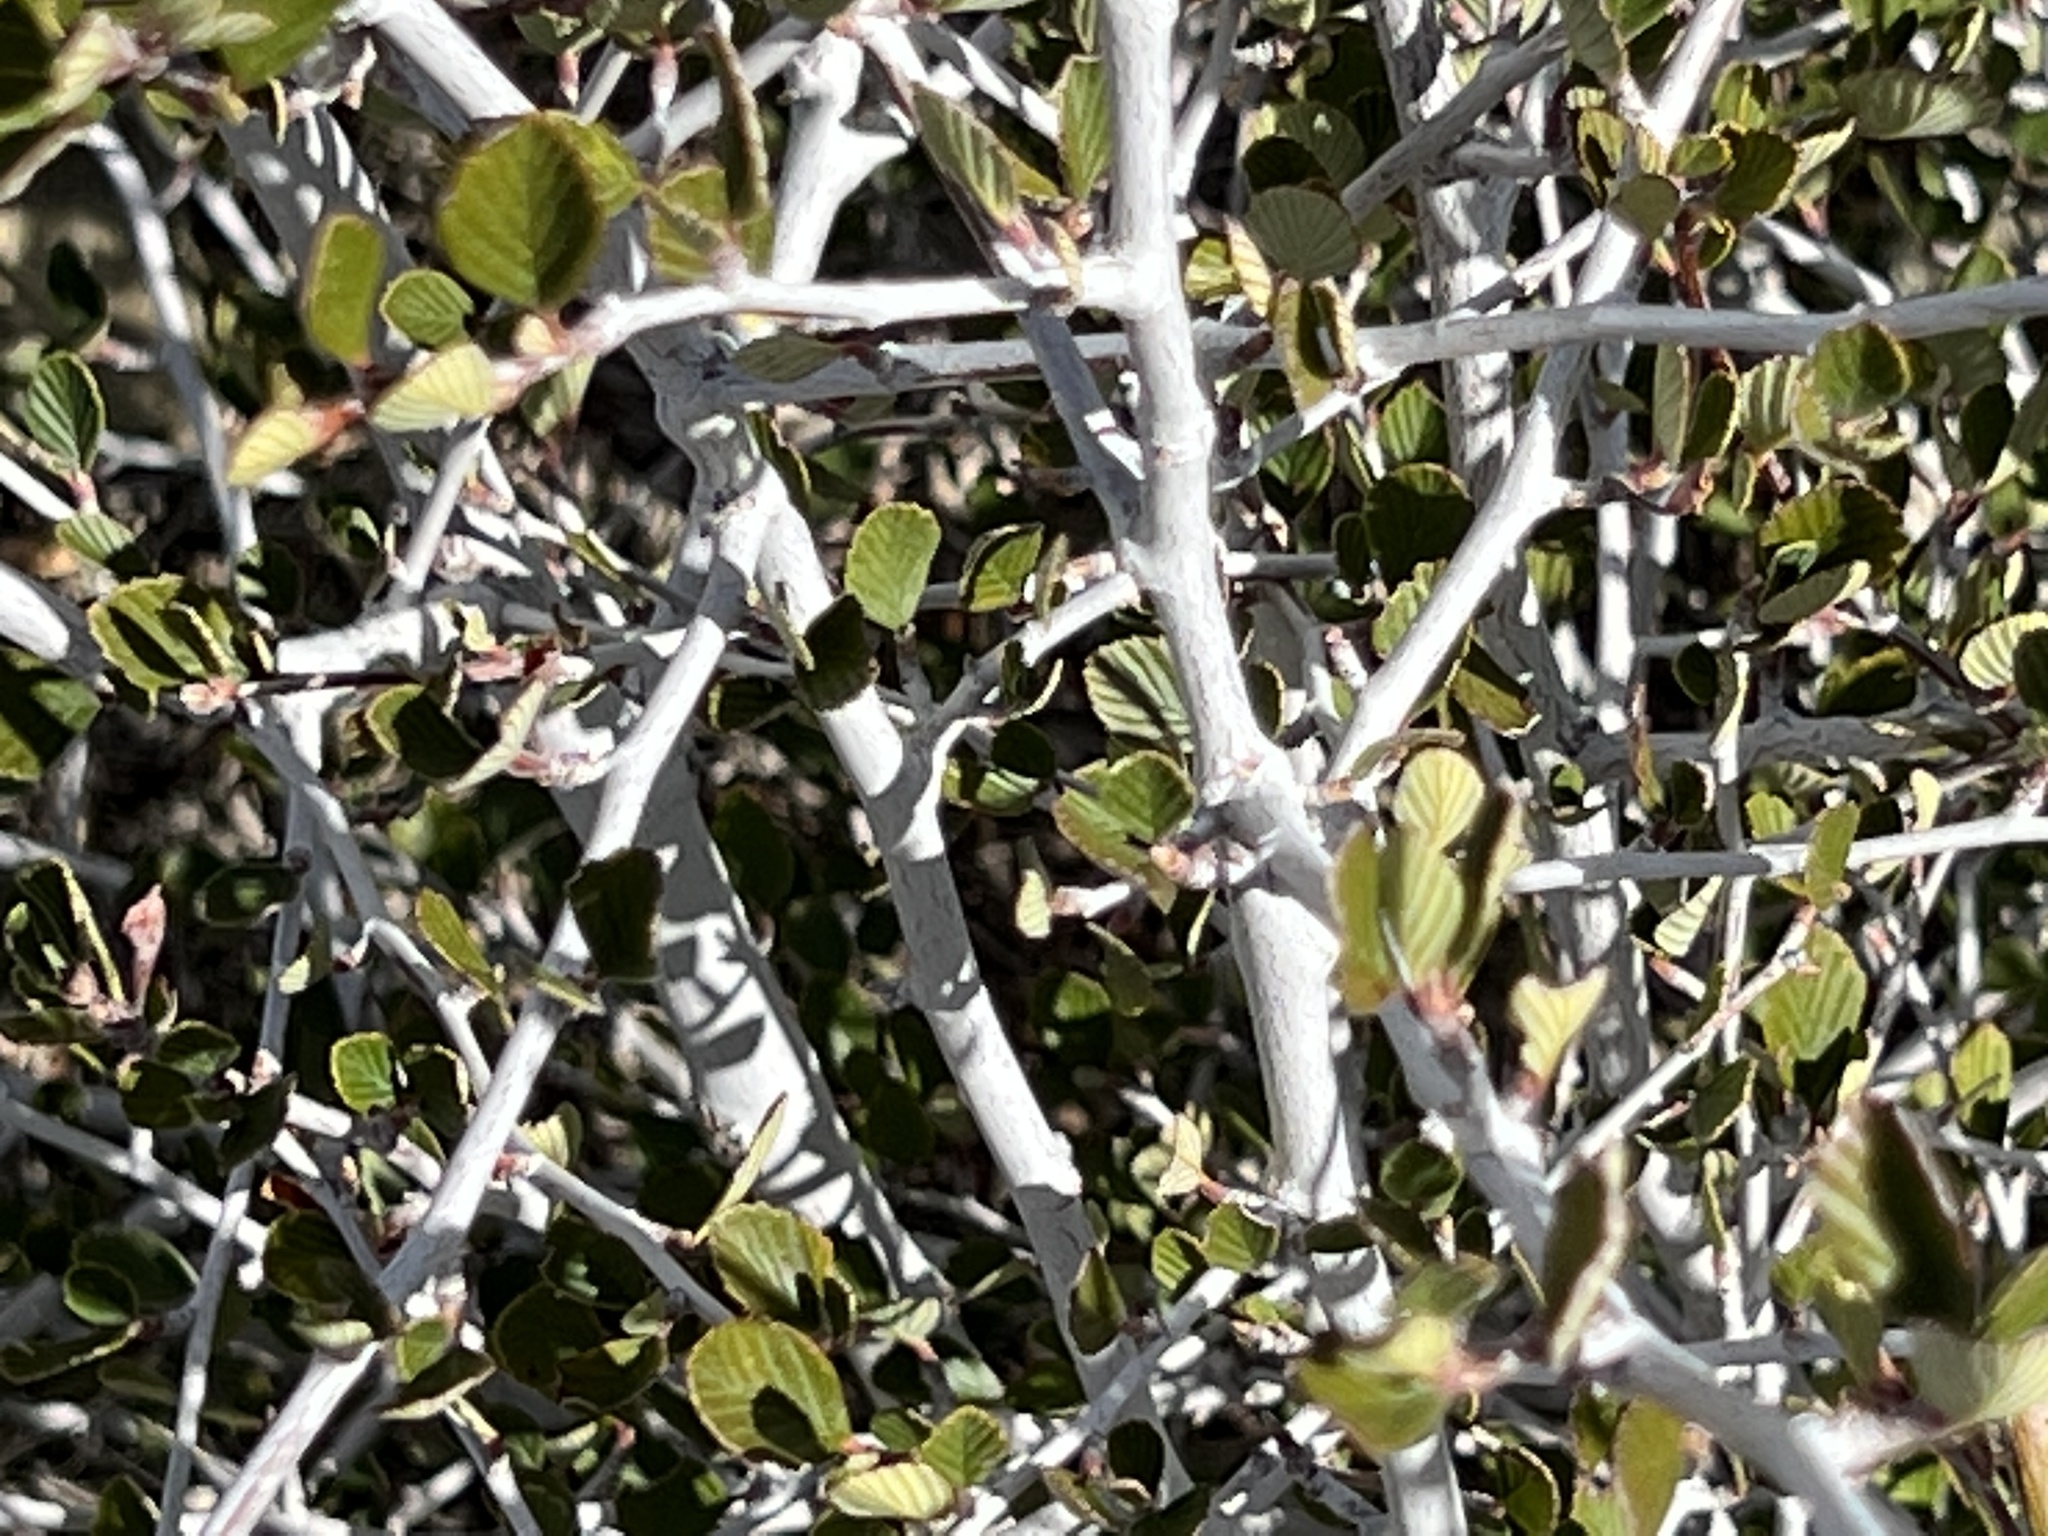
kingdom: Plantae
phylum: Tracheophyta
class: Magnoliopsida
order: Rosales
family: Rosaceae
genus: Cercocarpus
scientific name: Cercocarpus betuloides
